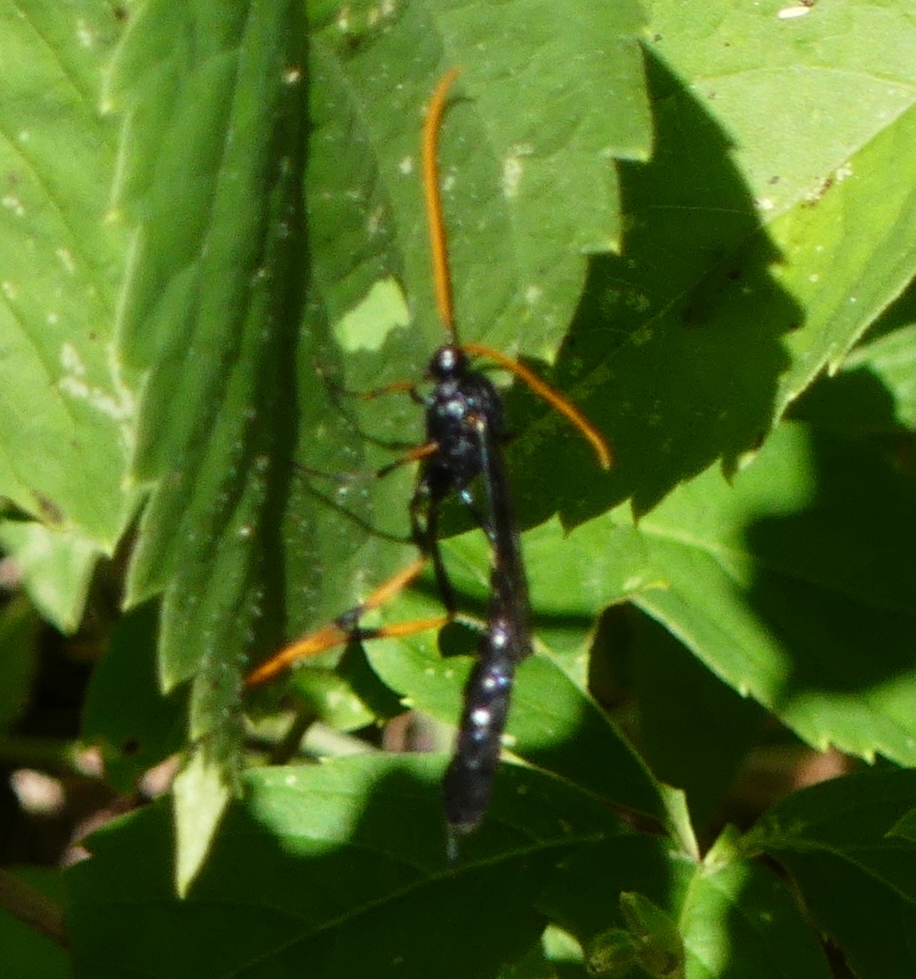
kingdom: Animalia
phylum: Arthropoda
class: Insecta
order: Hymenoptera
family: Ichneumonidae
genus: Therion
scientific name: Therion morio
